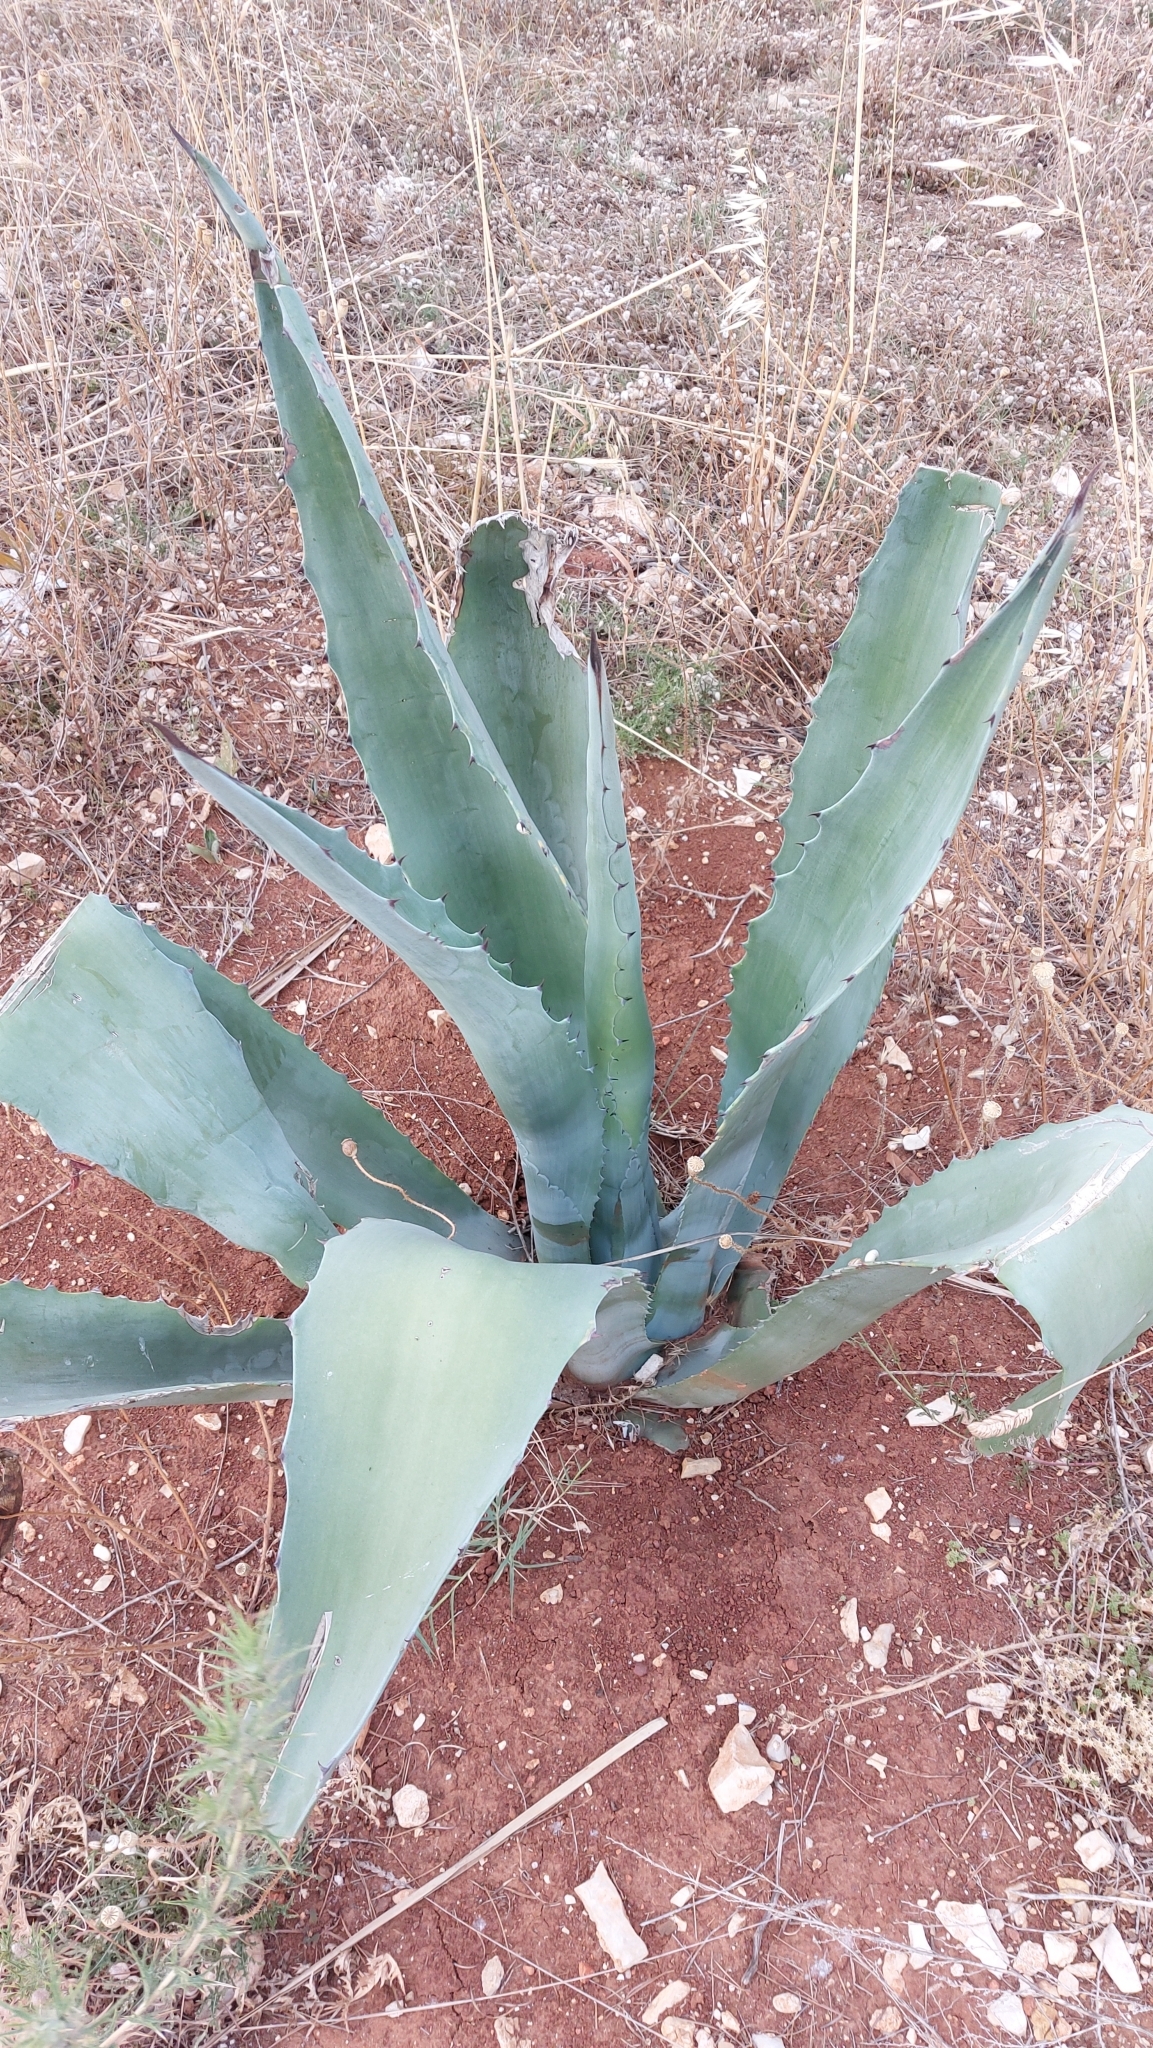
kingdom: Plantae
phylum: Tracheophyta
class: Liliopsida
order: Asparagales
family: Asparagaceae
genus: Agave
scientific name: Agave americana
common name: Centuryplant
